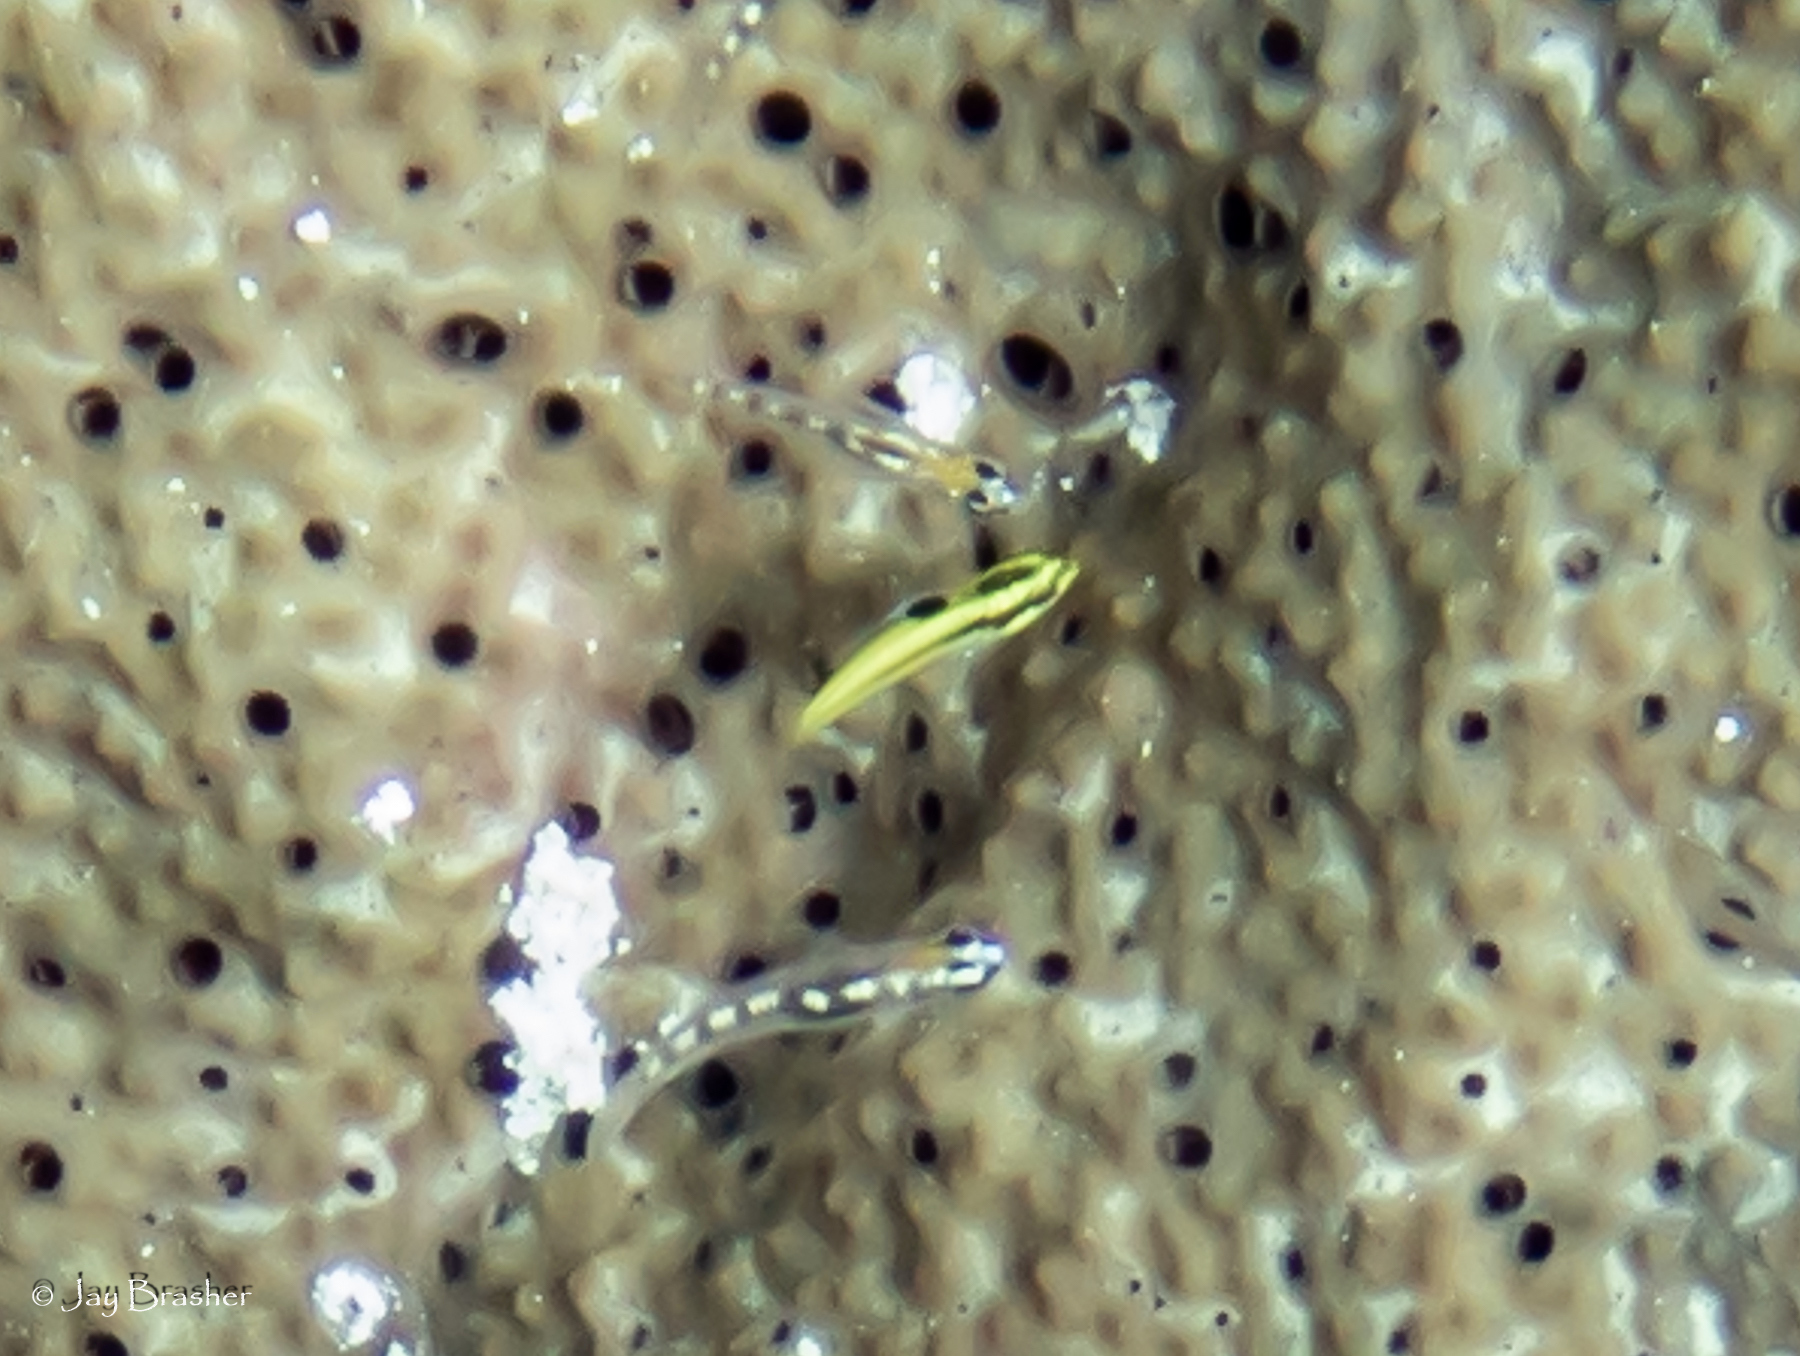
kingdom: Animalia
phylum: Chordata
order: Perciformes
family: Labridae
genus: Thalassoma
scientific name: Thalassoma bifasciatum
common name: Bluehead wrasse
